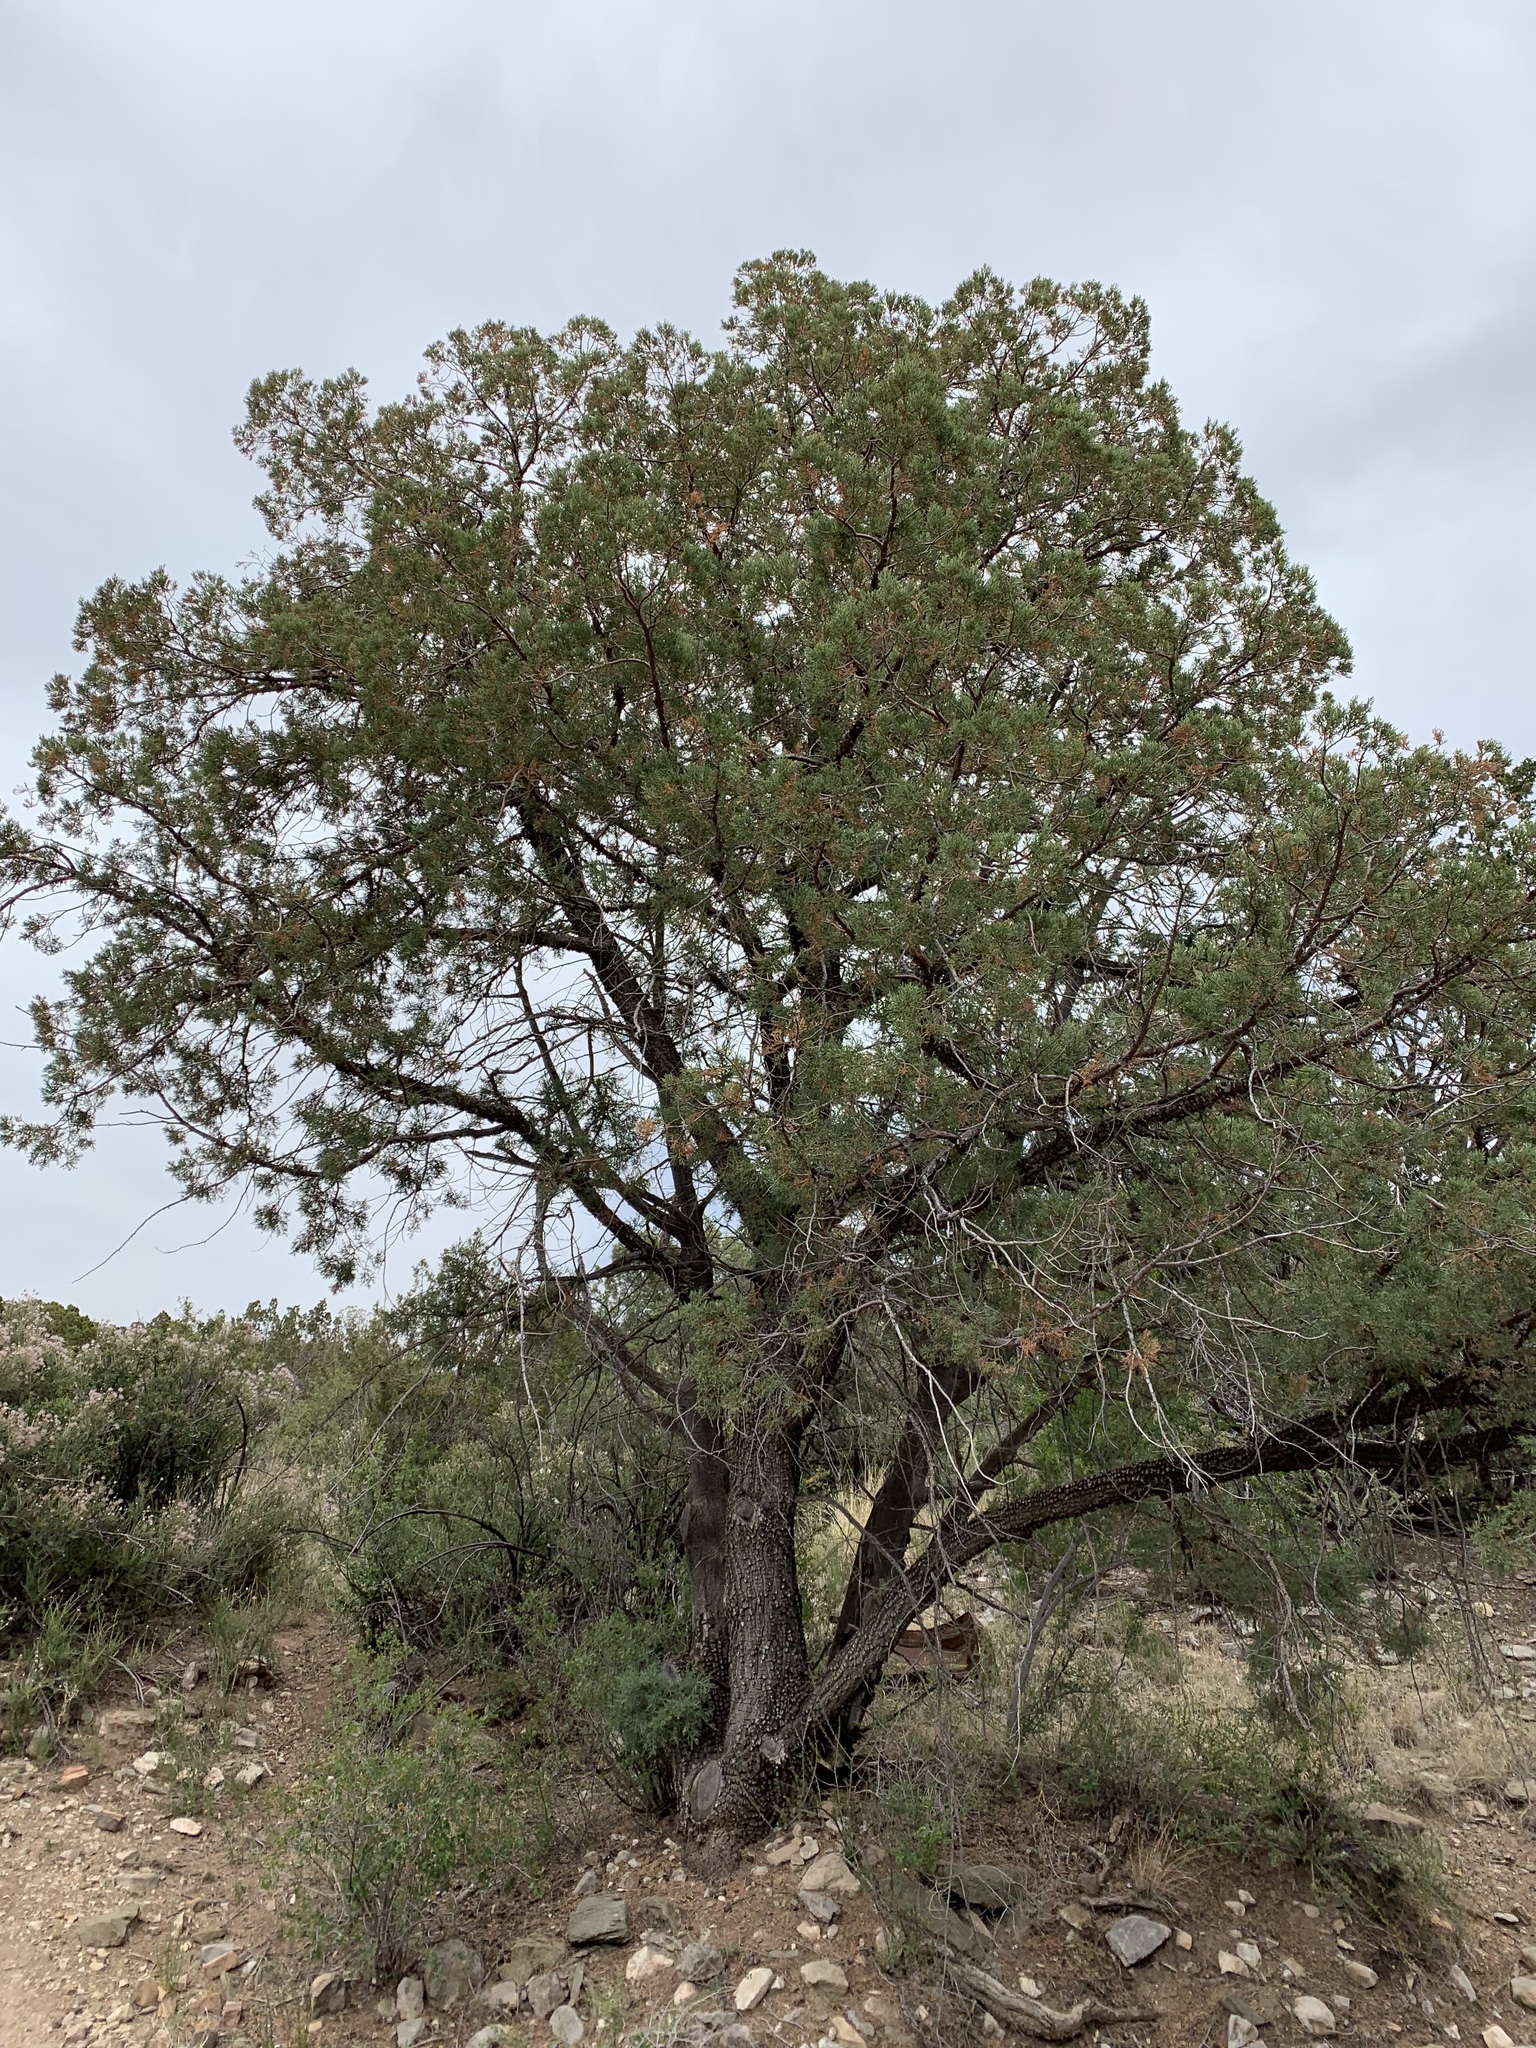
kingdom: Plantae
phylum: Tracheophyta
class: Pinopsida
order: Pinales
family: Cupressaceae
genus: Juniperus
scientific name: Juniperus deppeana
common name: Alligator juniper
